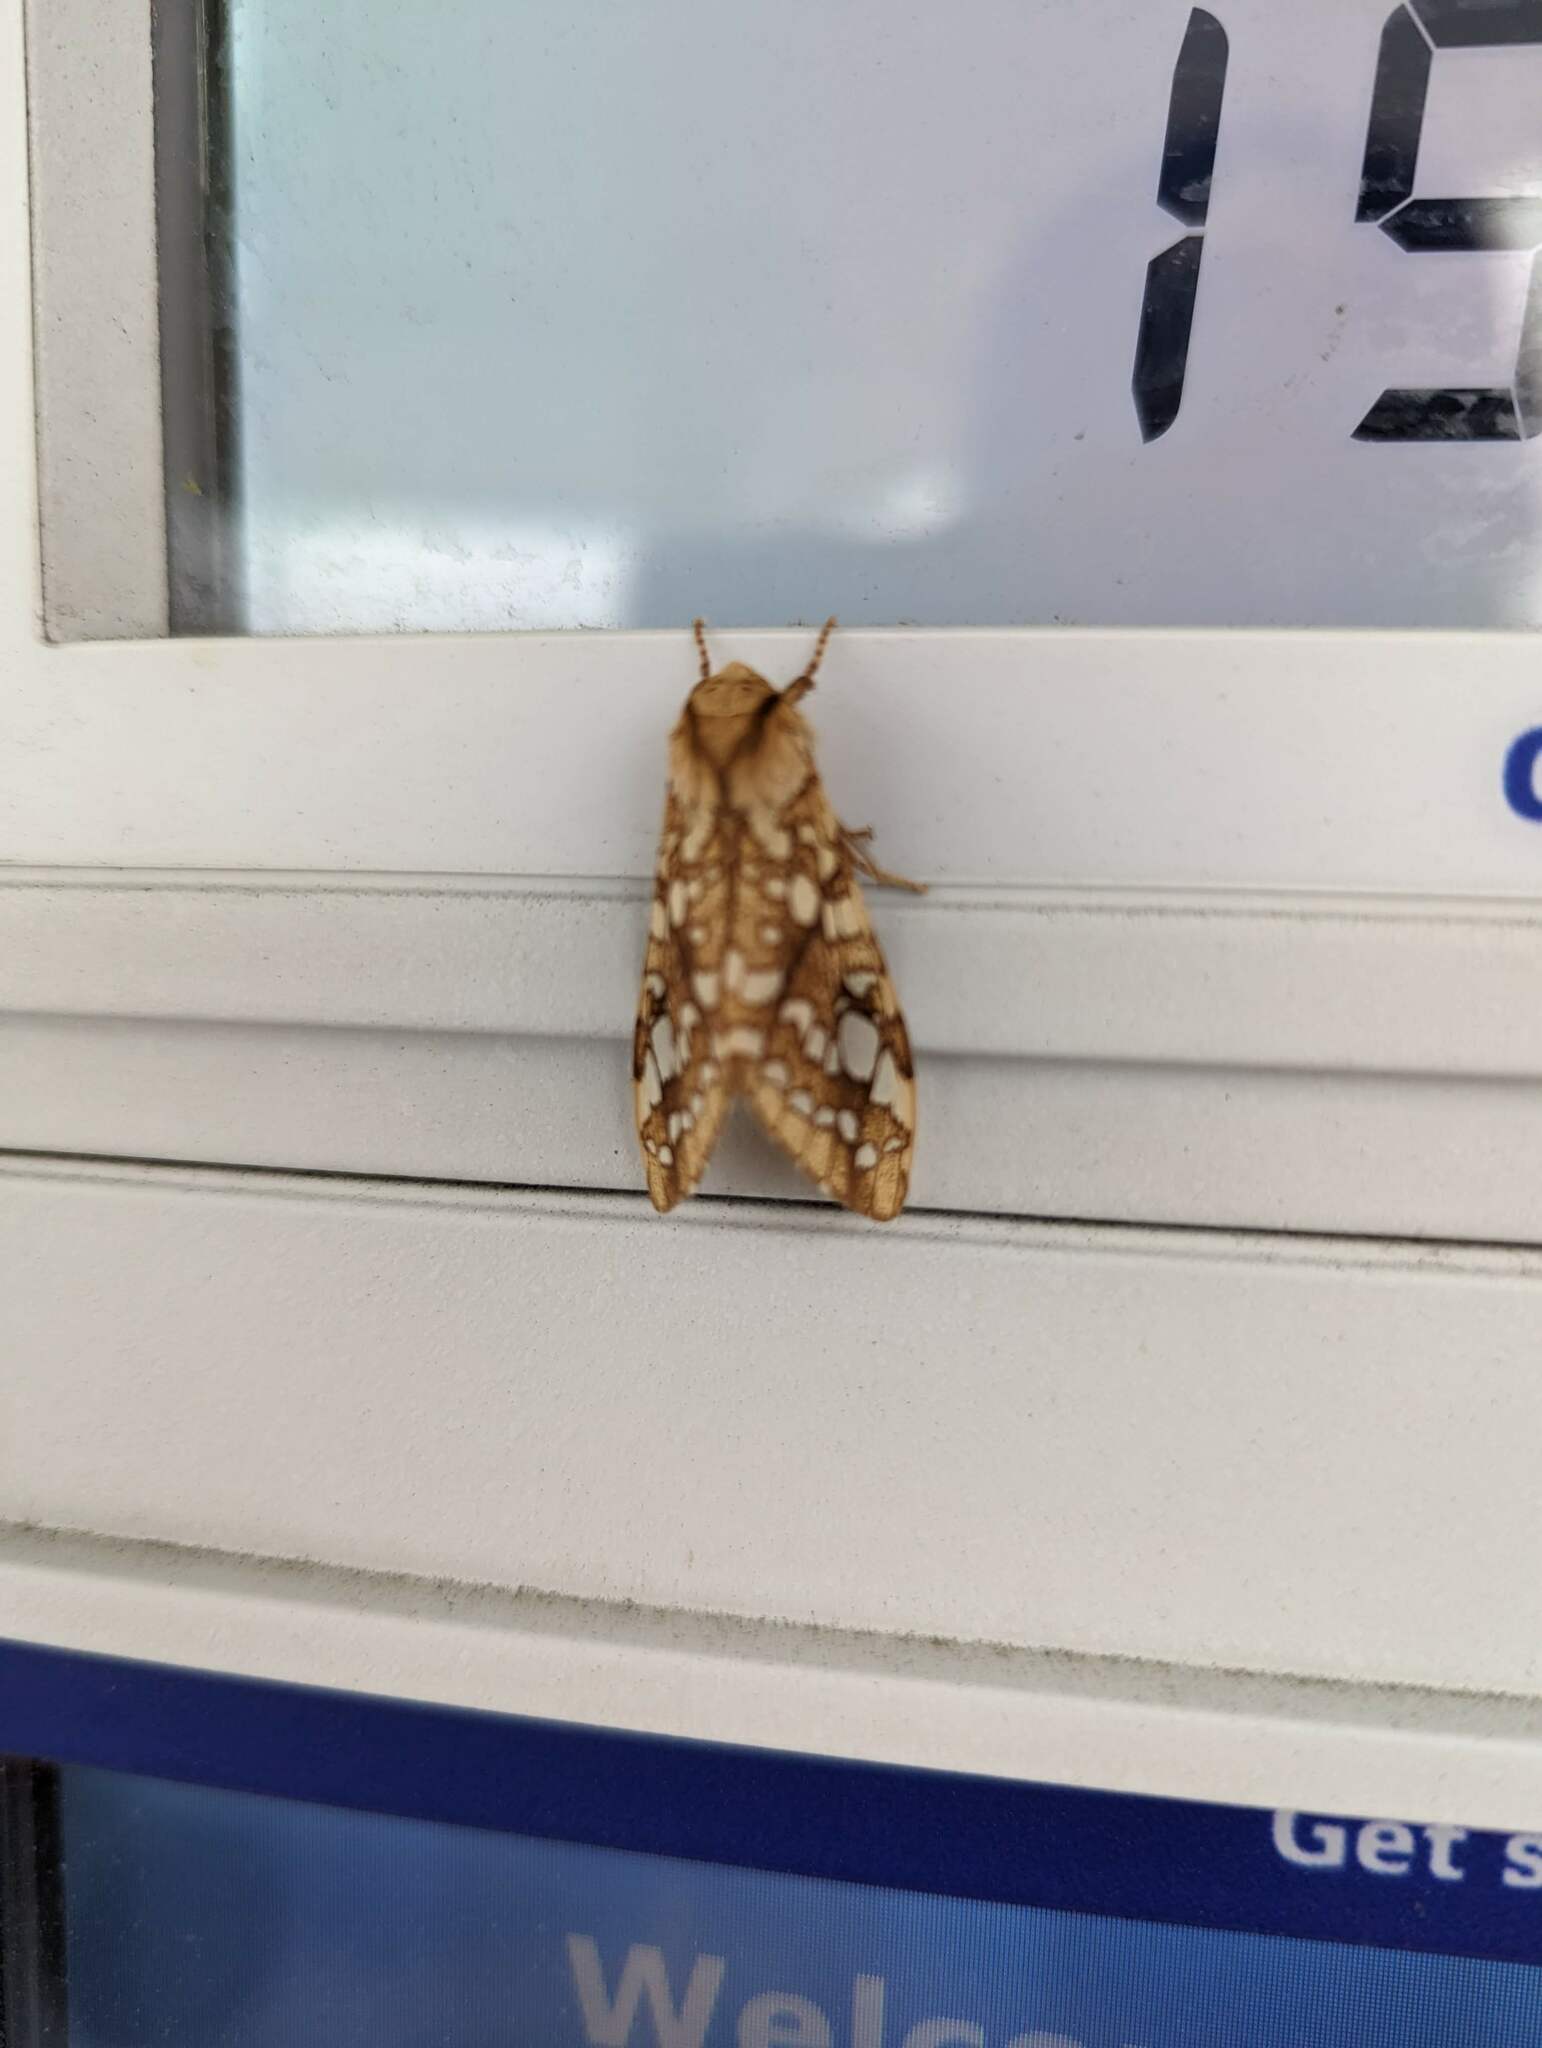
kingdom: Animalia
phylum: Arthropoda
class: Insecta
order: Lepidoptera
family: Erebidae
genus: Lophocampa
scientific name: Lophocampa caryae
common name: Hickory tussock moth
